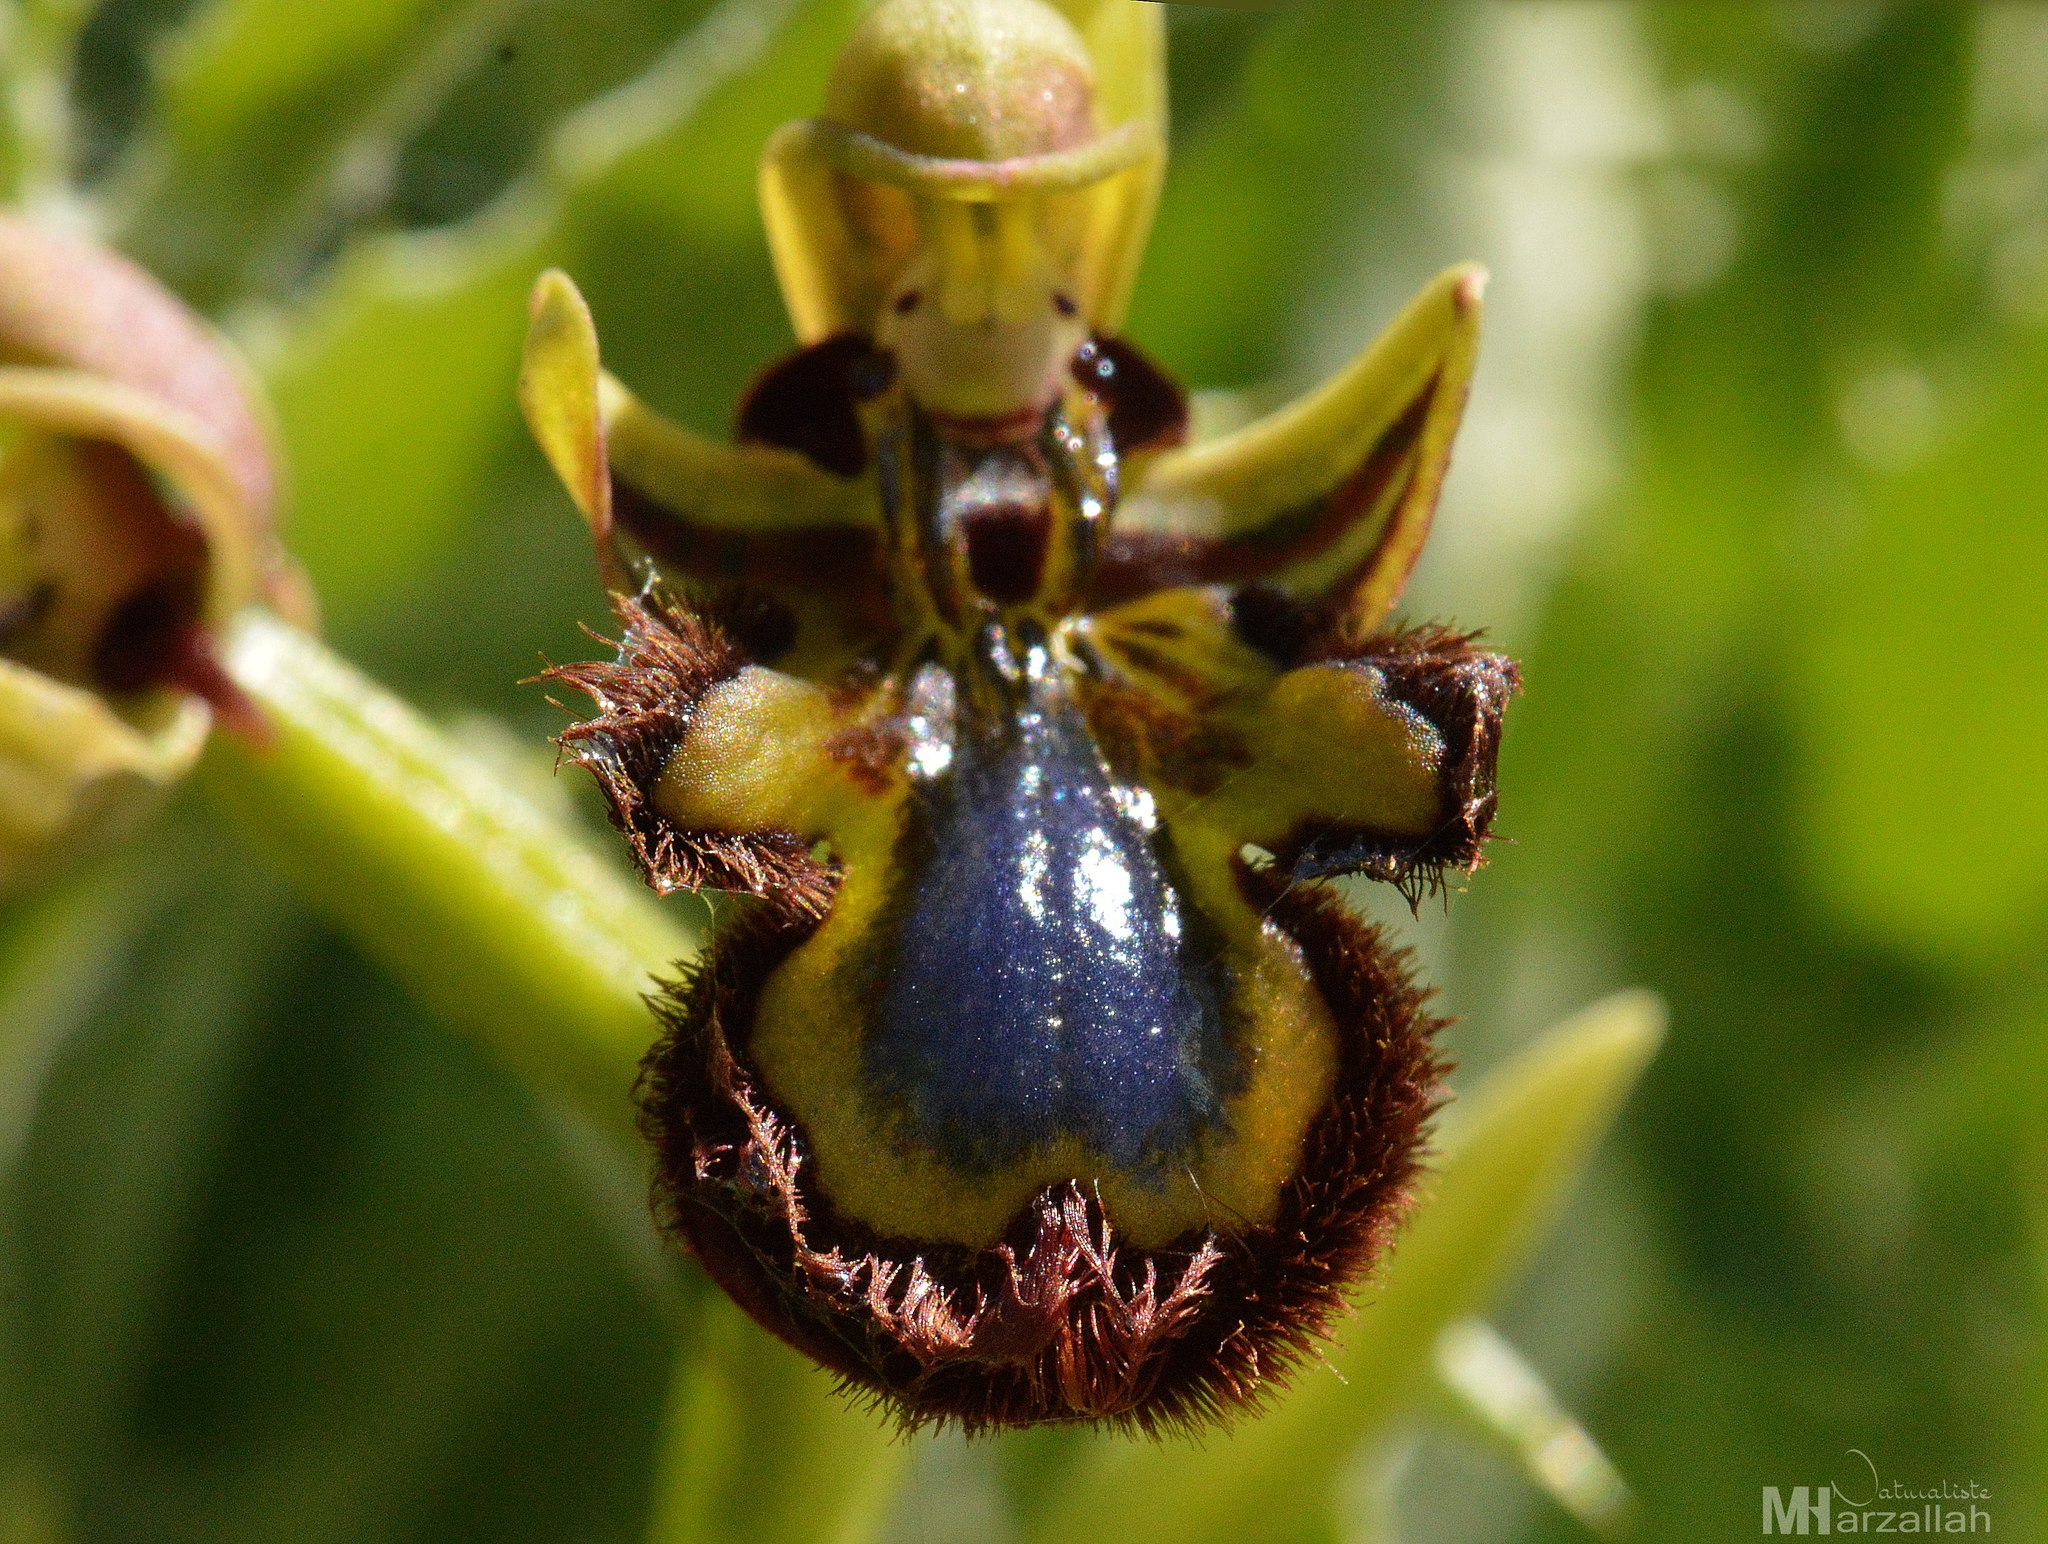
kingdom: Plantae
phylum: Tracheophyta
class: Liliopsida
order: Asparagales
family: Orchidaceae
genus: Ophrys
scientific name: Ophrys speculum
